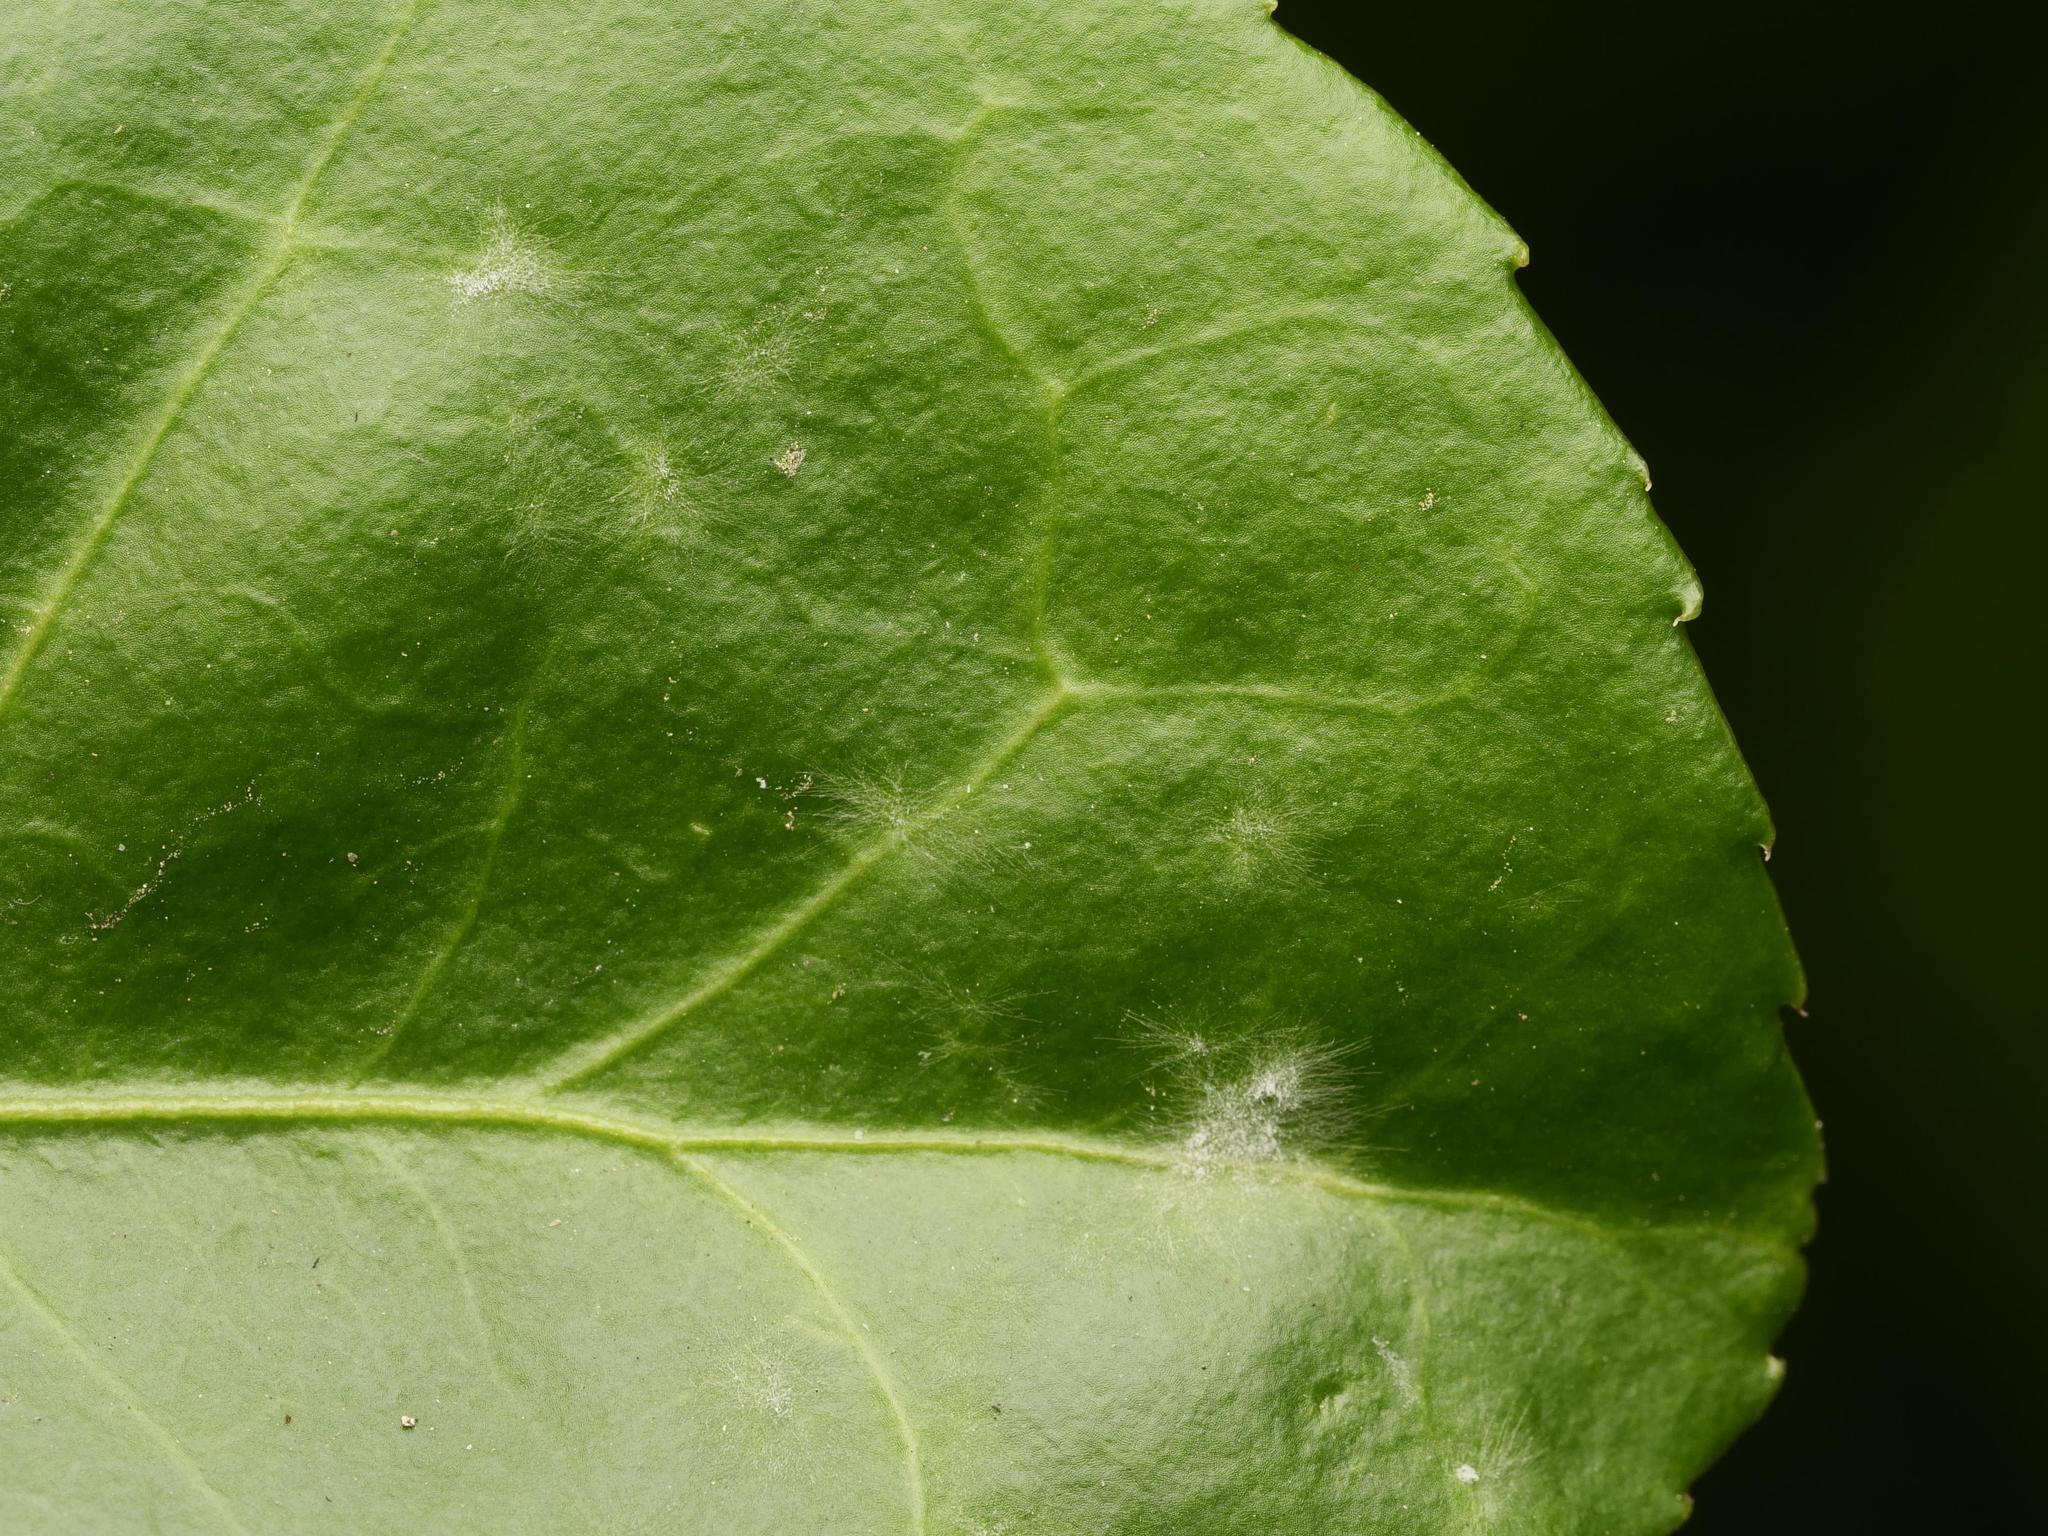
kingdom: Fungi
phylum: Ascomycota
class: Leotiomycetes
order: Helotiales
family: Erysiphaceae
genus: Erysiphe
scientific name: Erysiphe euonymicola
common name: Spindletree mildew
